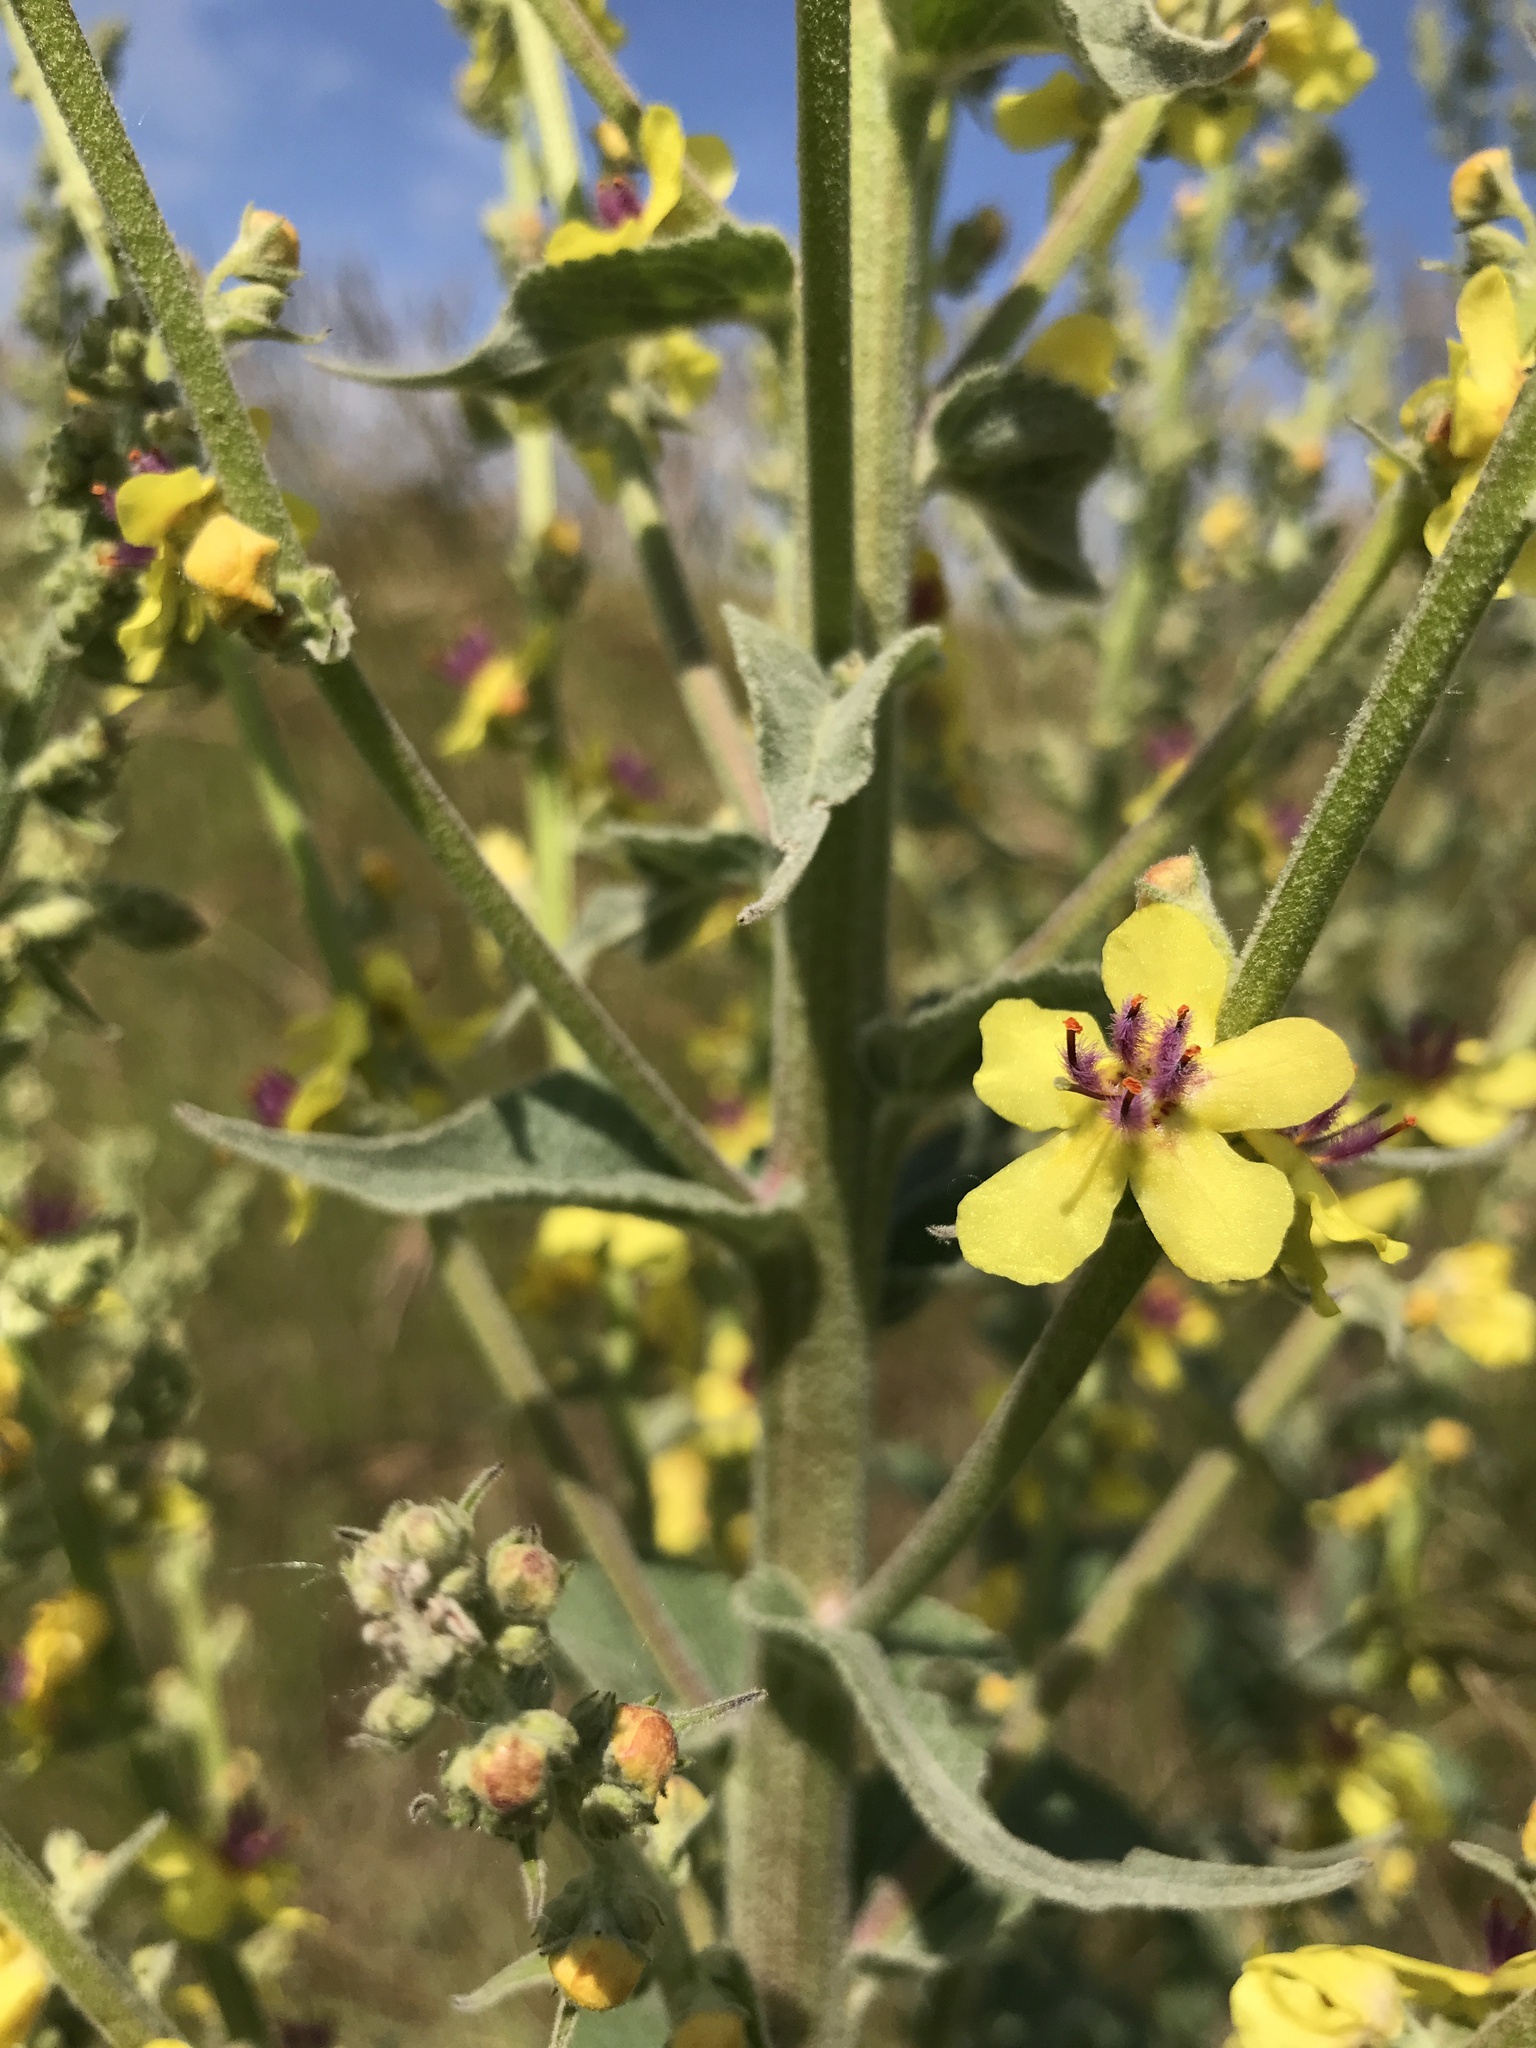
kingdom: Plantae
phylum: Tracheophyta
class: Magnoliopsida
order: Lamiales
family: Scrophulariaceae
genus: Verbascum
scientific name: Verbascum nigrum
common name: Dark mullein
